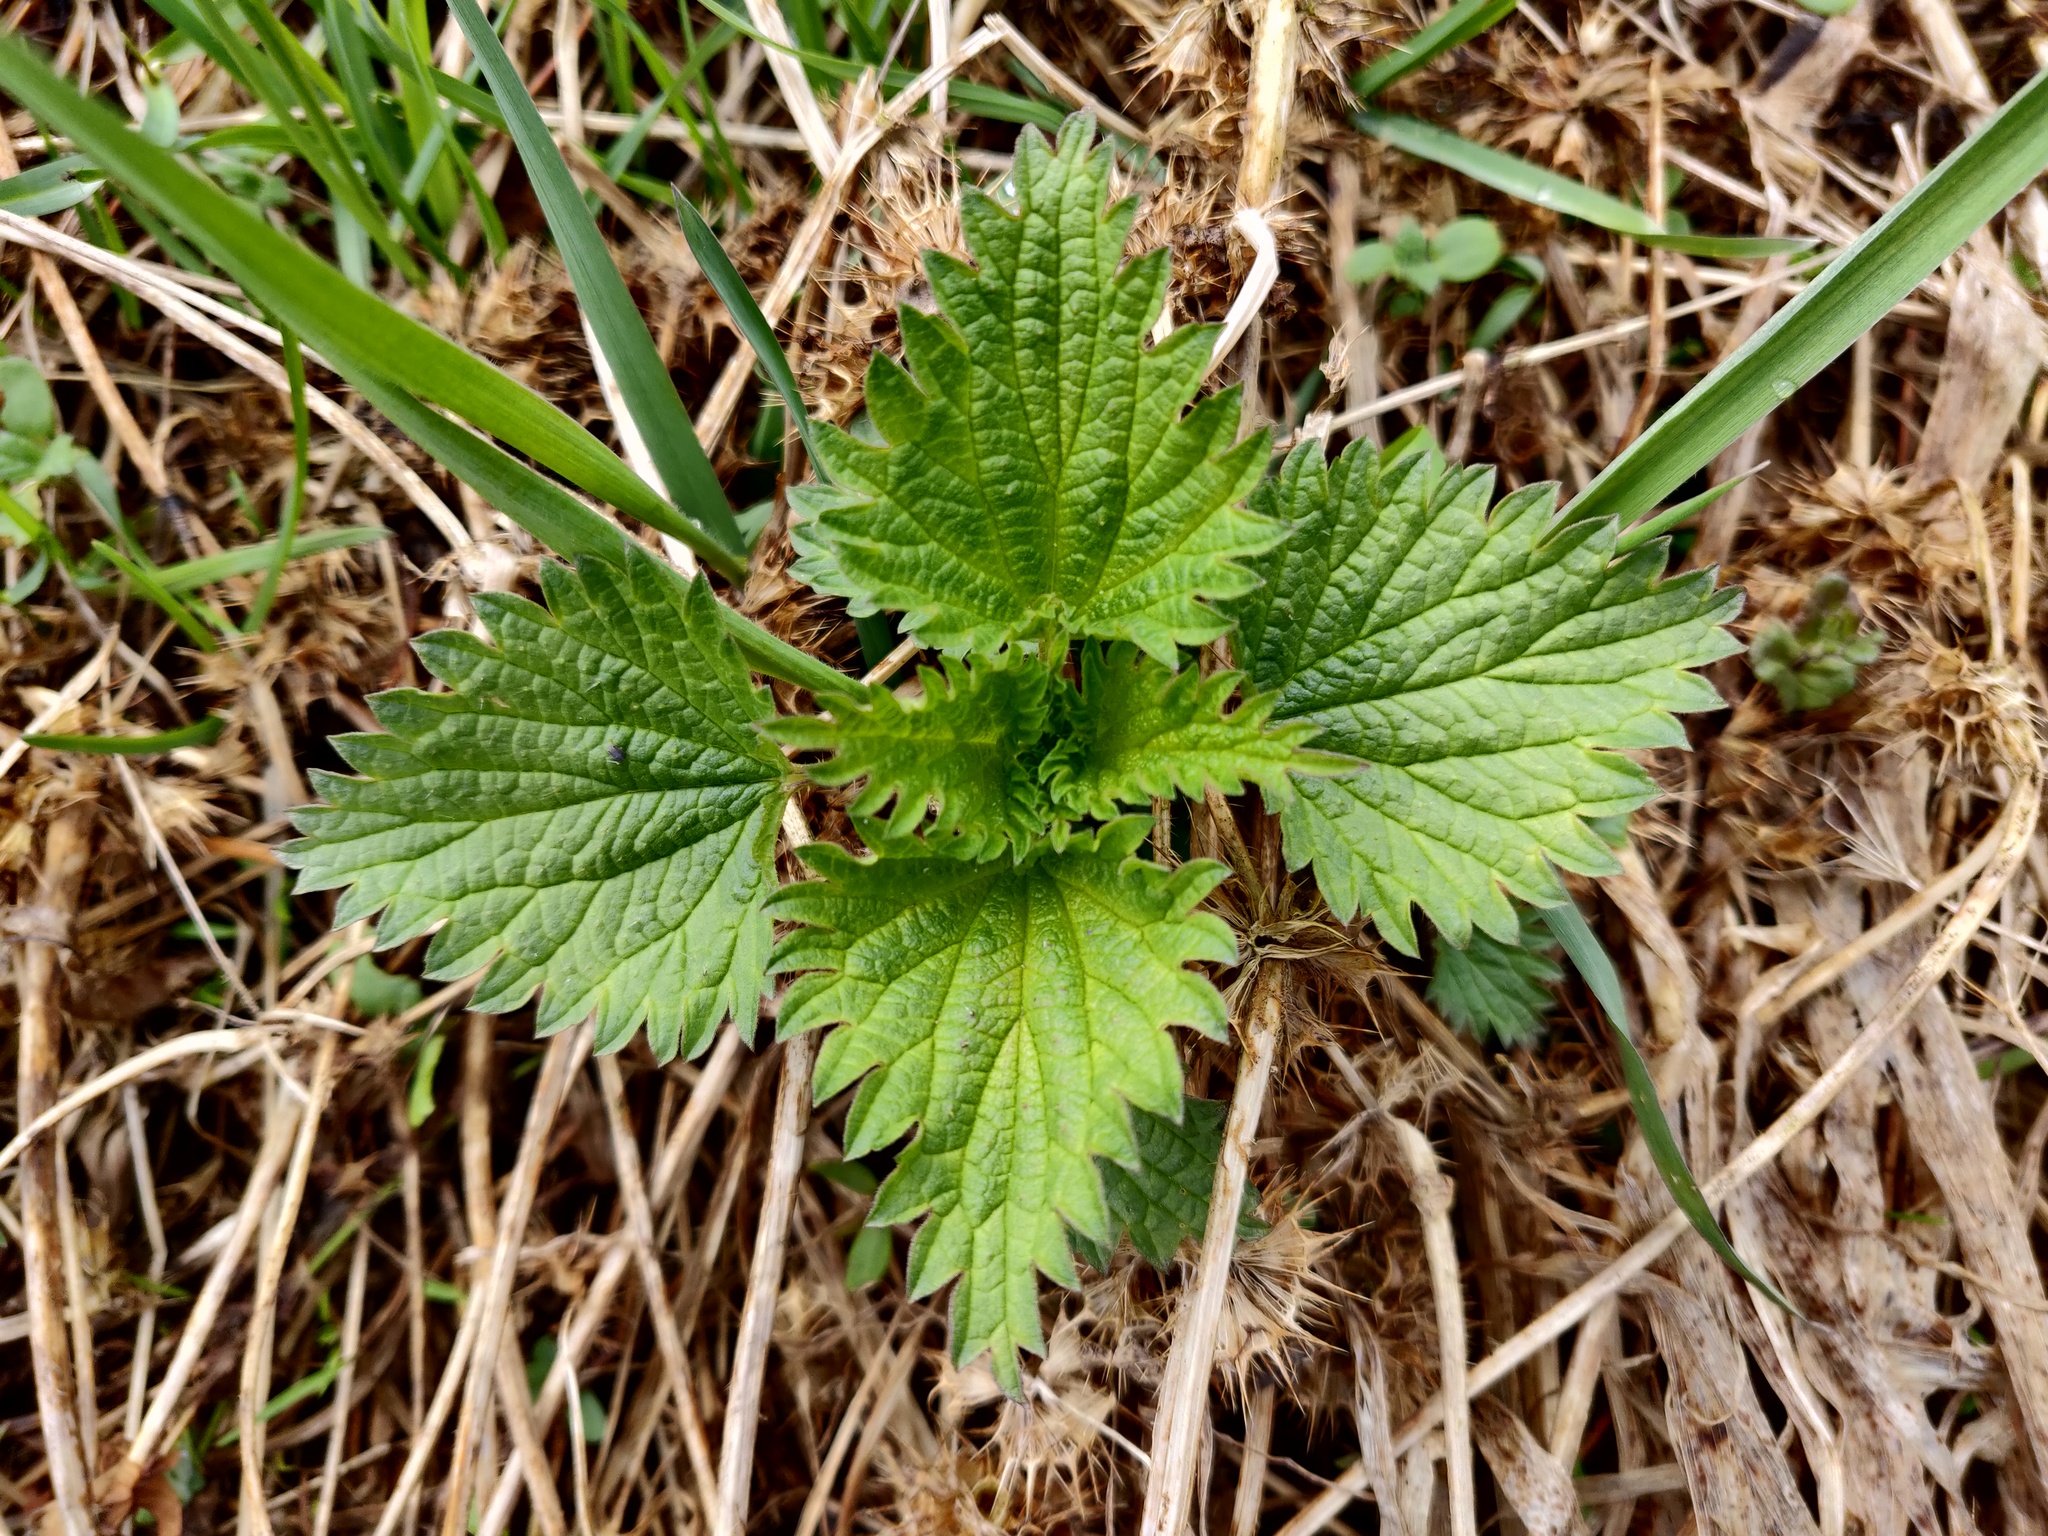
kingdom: Plantae
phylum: Tracheophyta
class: Magnoliopsida
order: Rosales
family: Urticaceae
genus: Urtica
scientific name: Urtica dioica
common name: Common nettle
